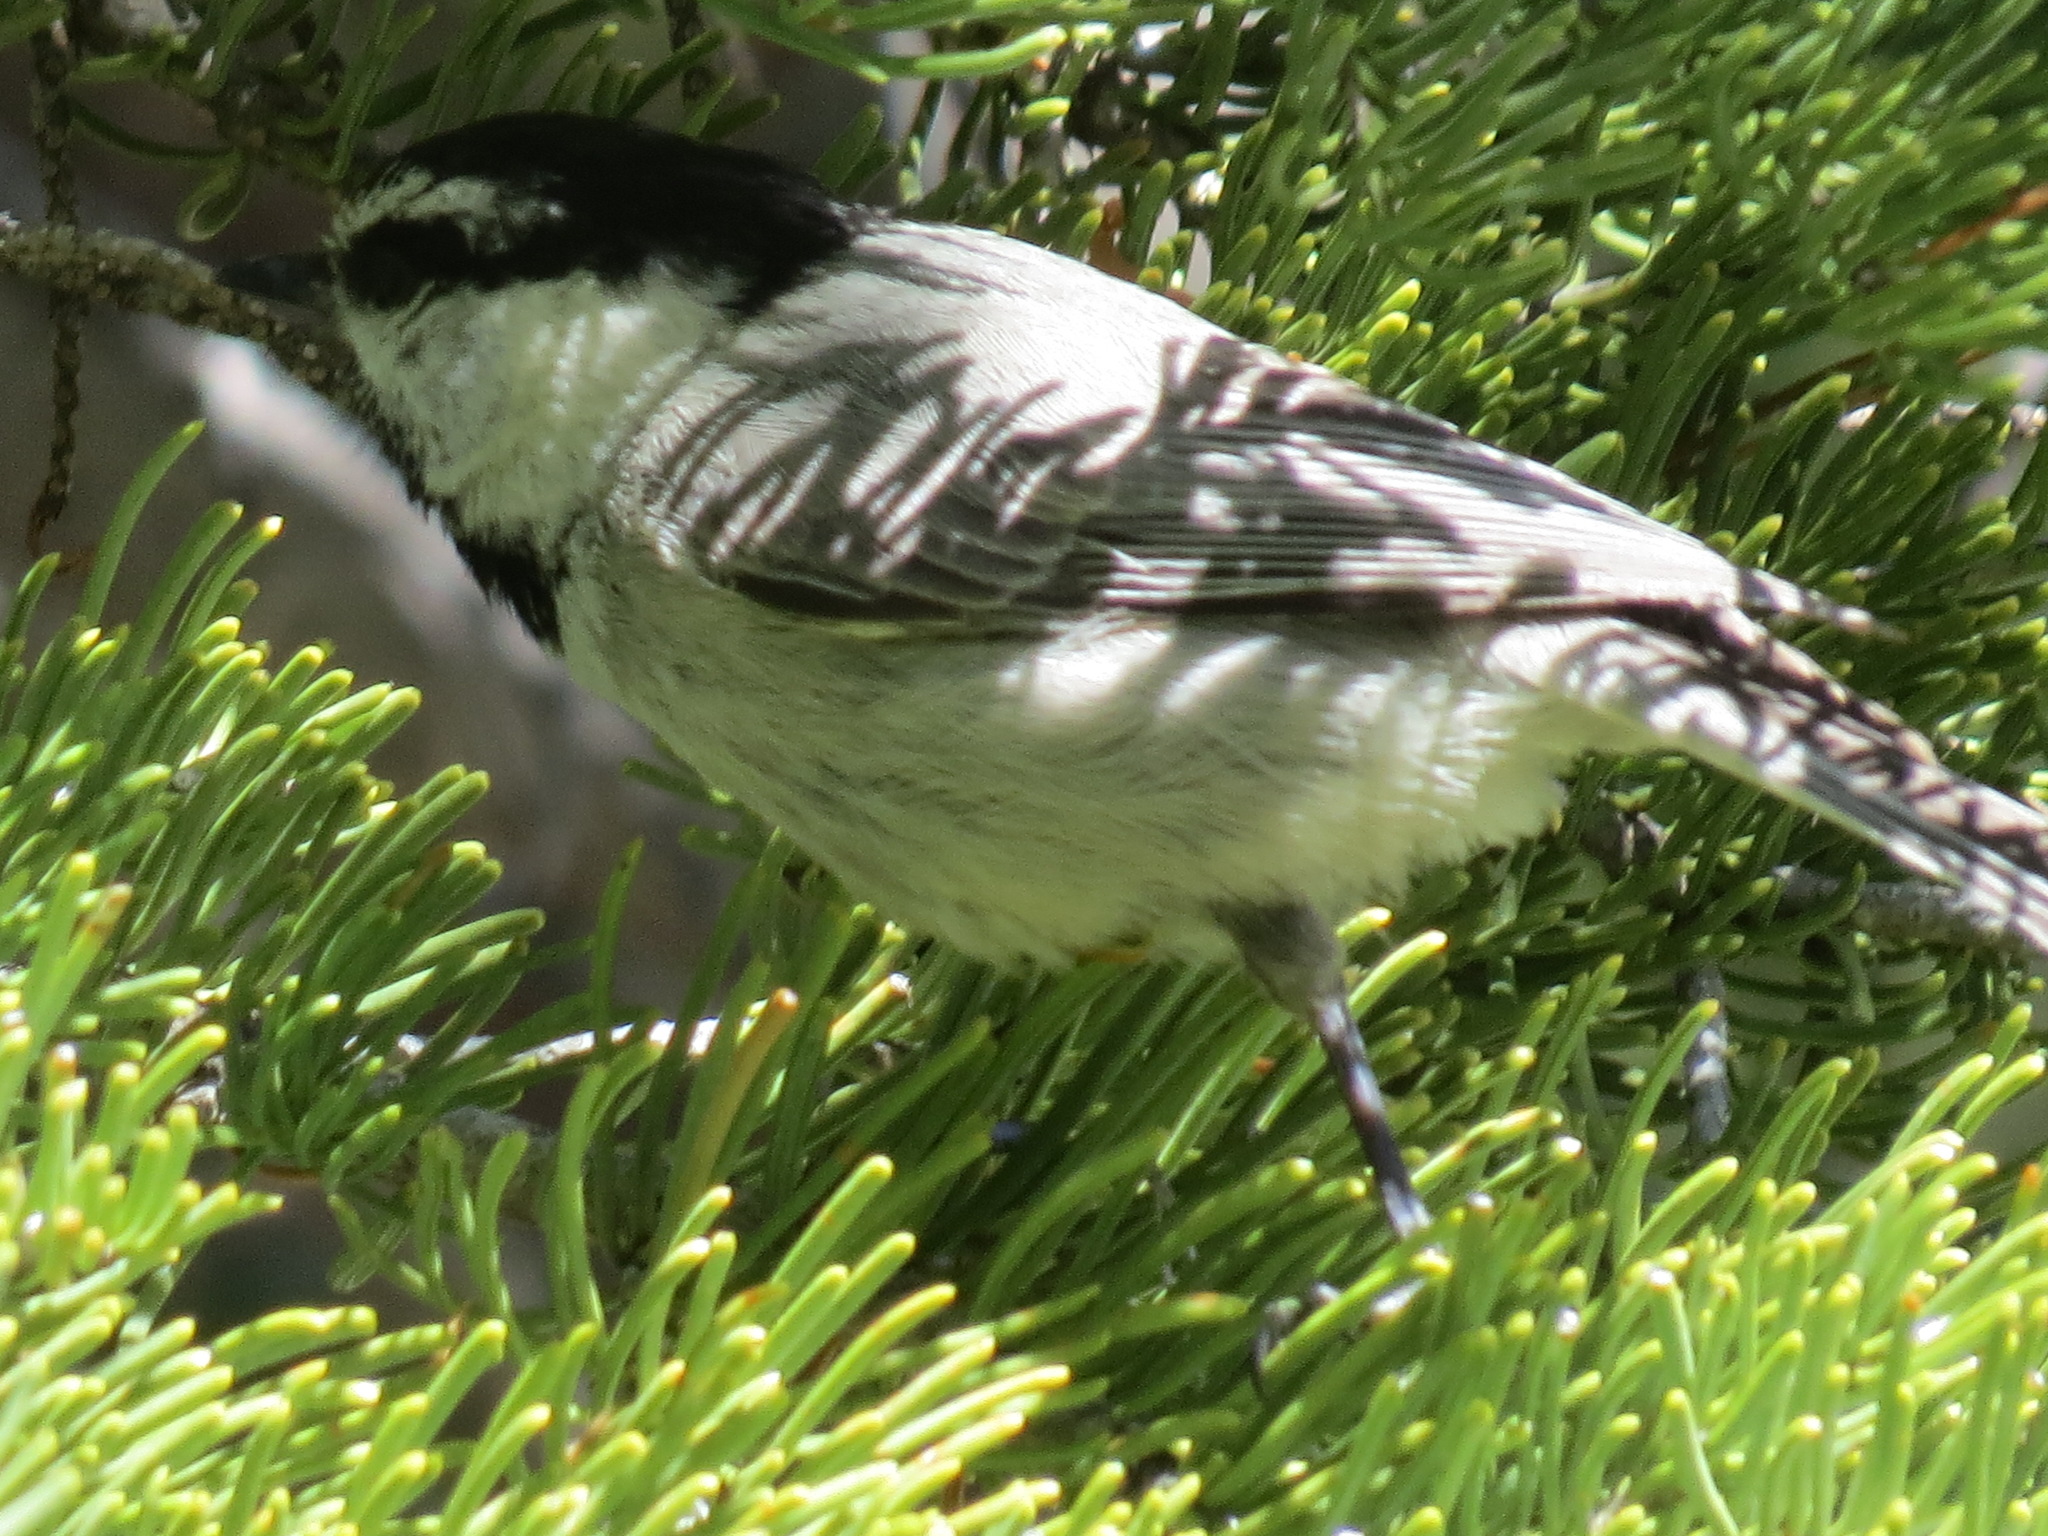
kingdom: Animalia
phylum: Chordata
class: Aves
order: Passeriformes
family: Paridae
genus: Poecile
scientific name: Poecile gambeli
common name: Mountain chickadee
